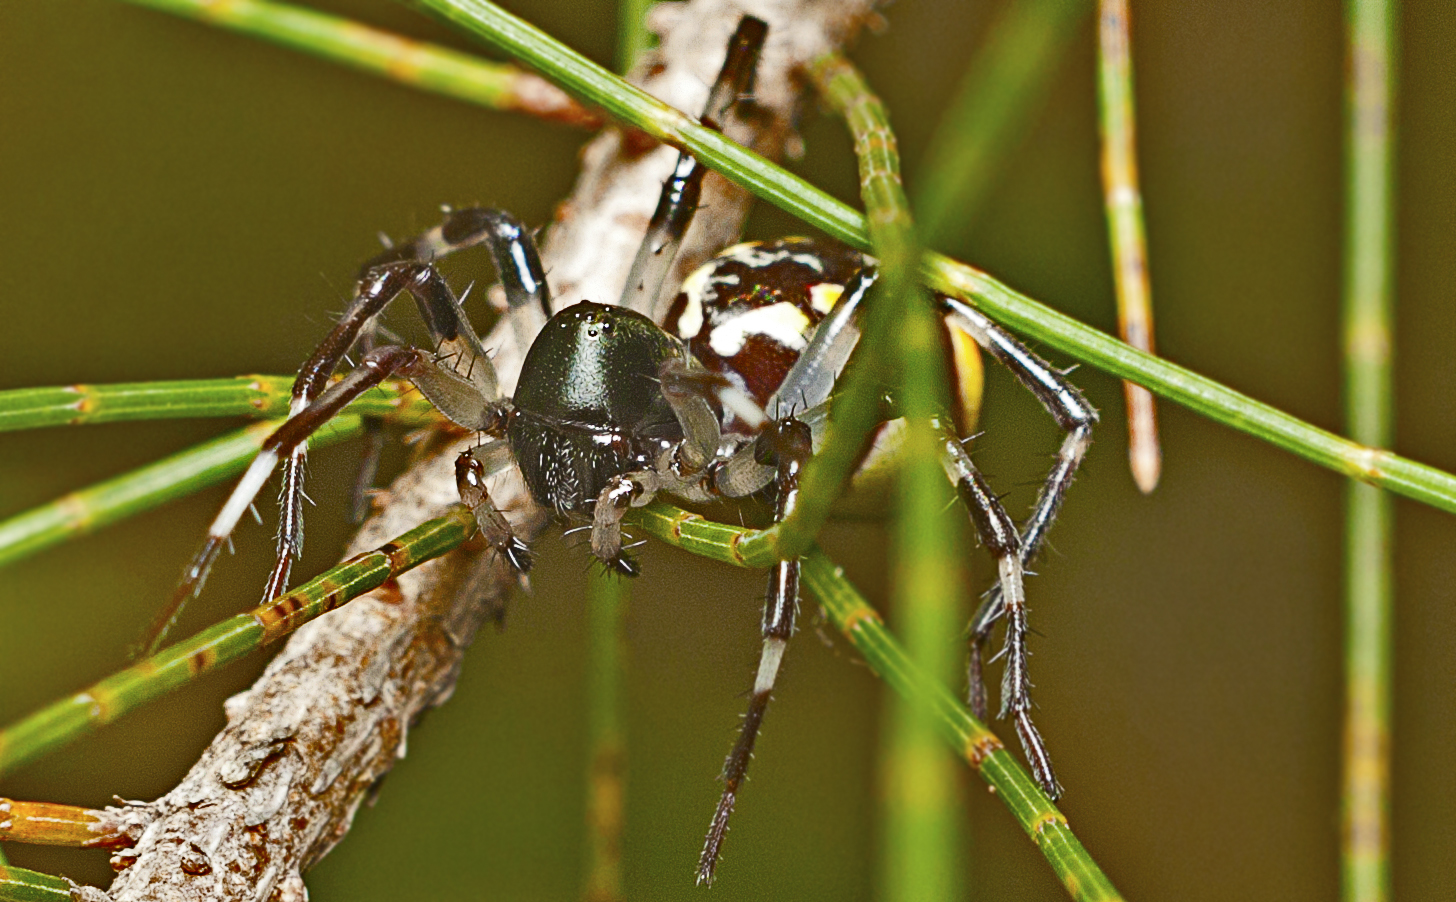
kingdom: Animalia
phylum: Arthropoda
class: Arachnida
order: Araneae
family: Zodariidae
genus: Subasteron
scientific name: Subasteron daviesae
